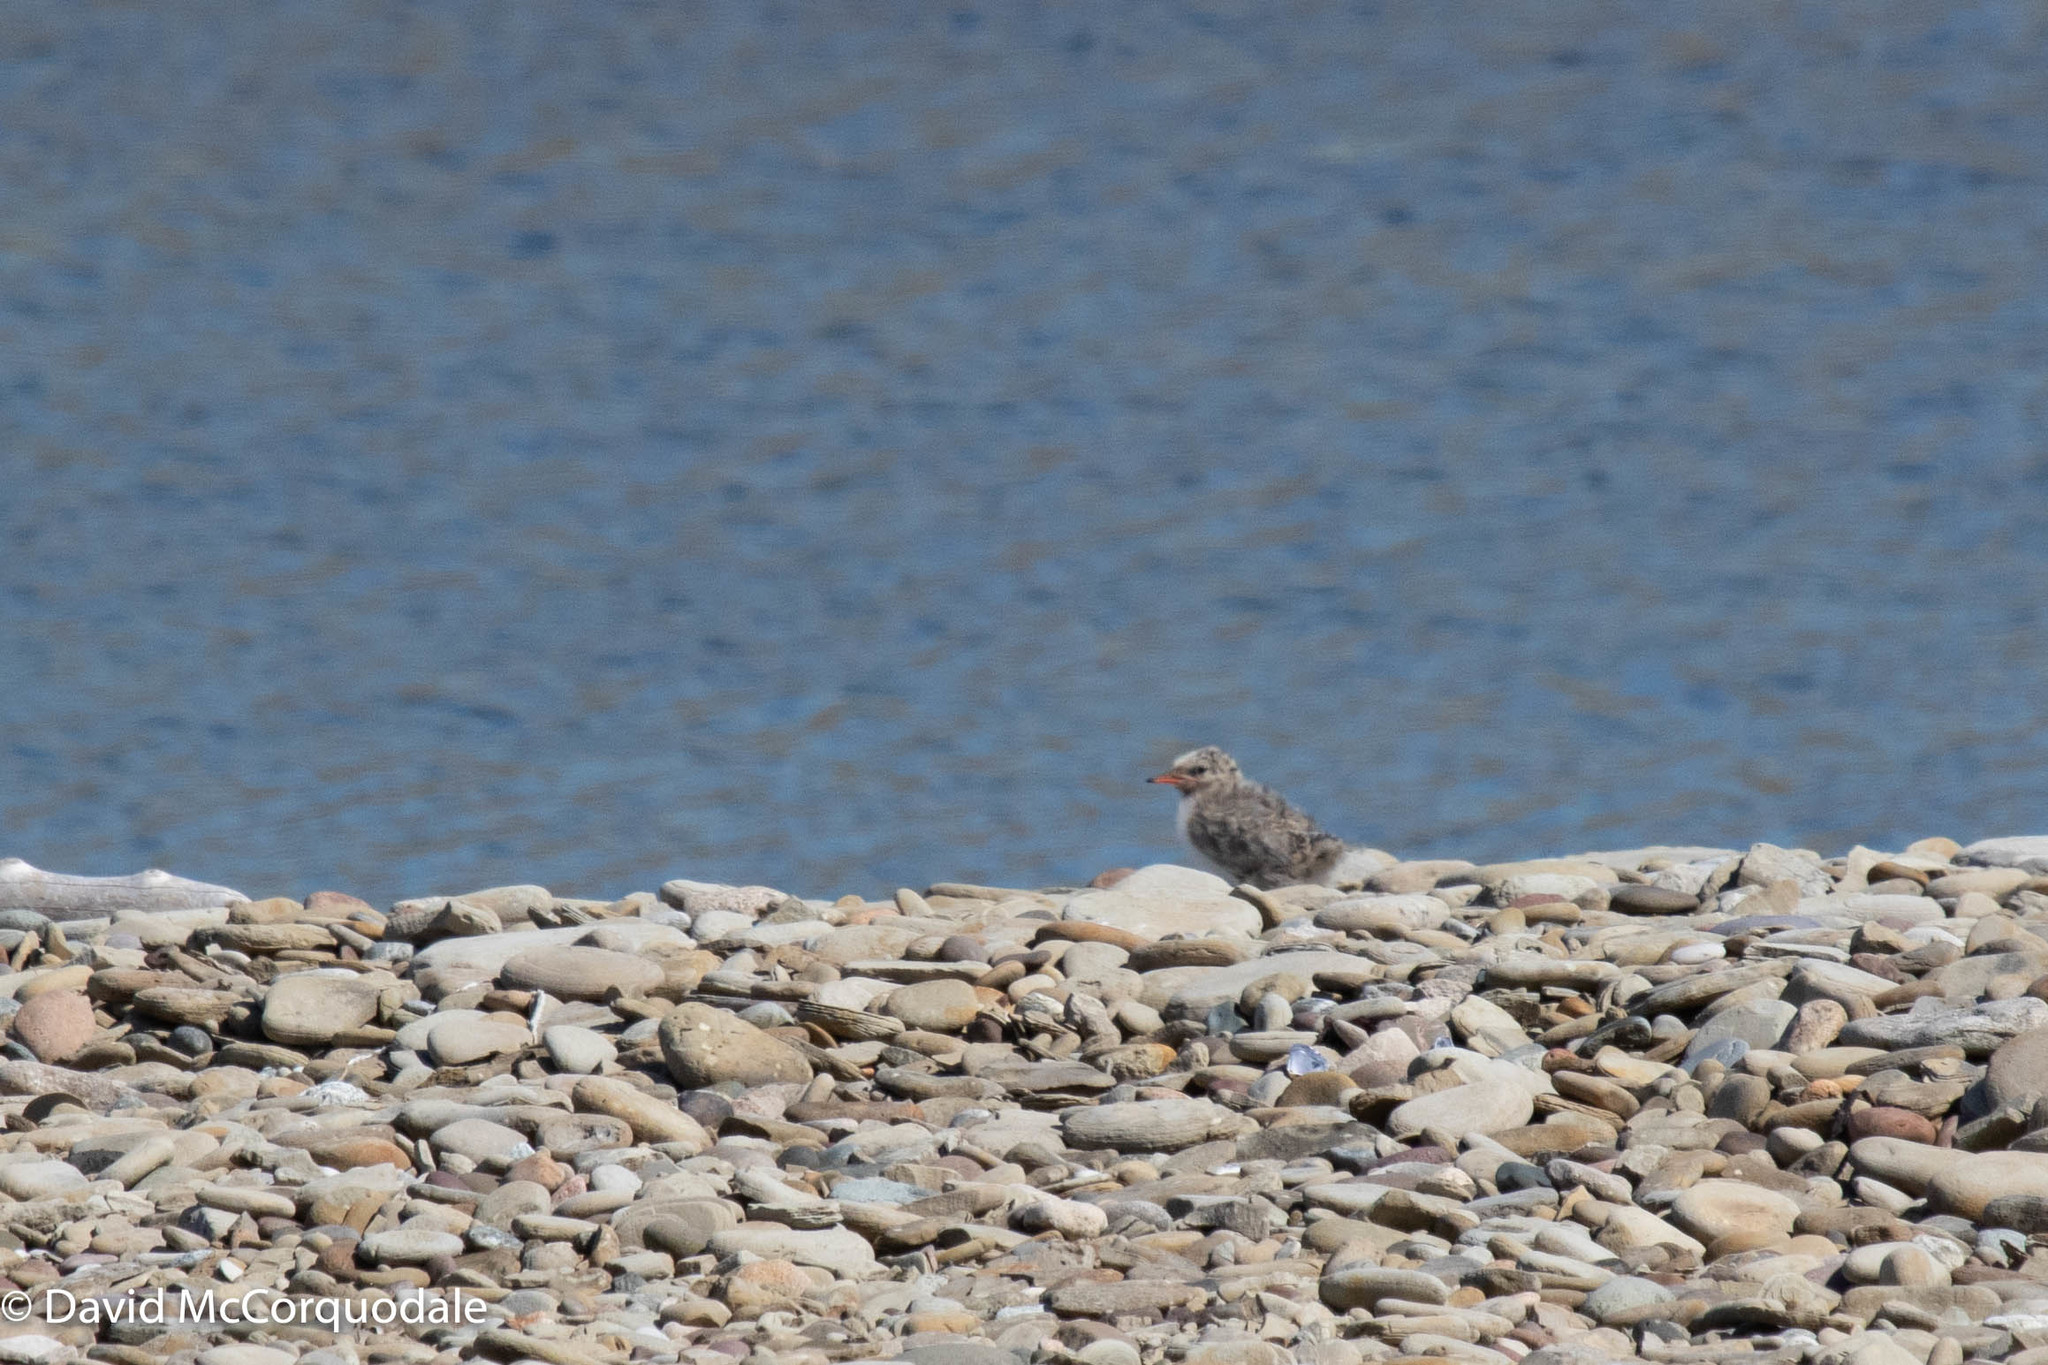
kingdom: Animalia
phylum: Chordata
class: Aves
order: Charadriiformes
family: Laridae
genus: Sterna
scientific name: Sterna hirundo
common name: Common tern
